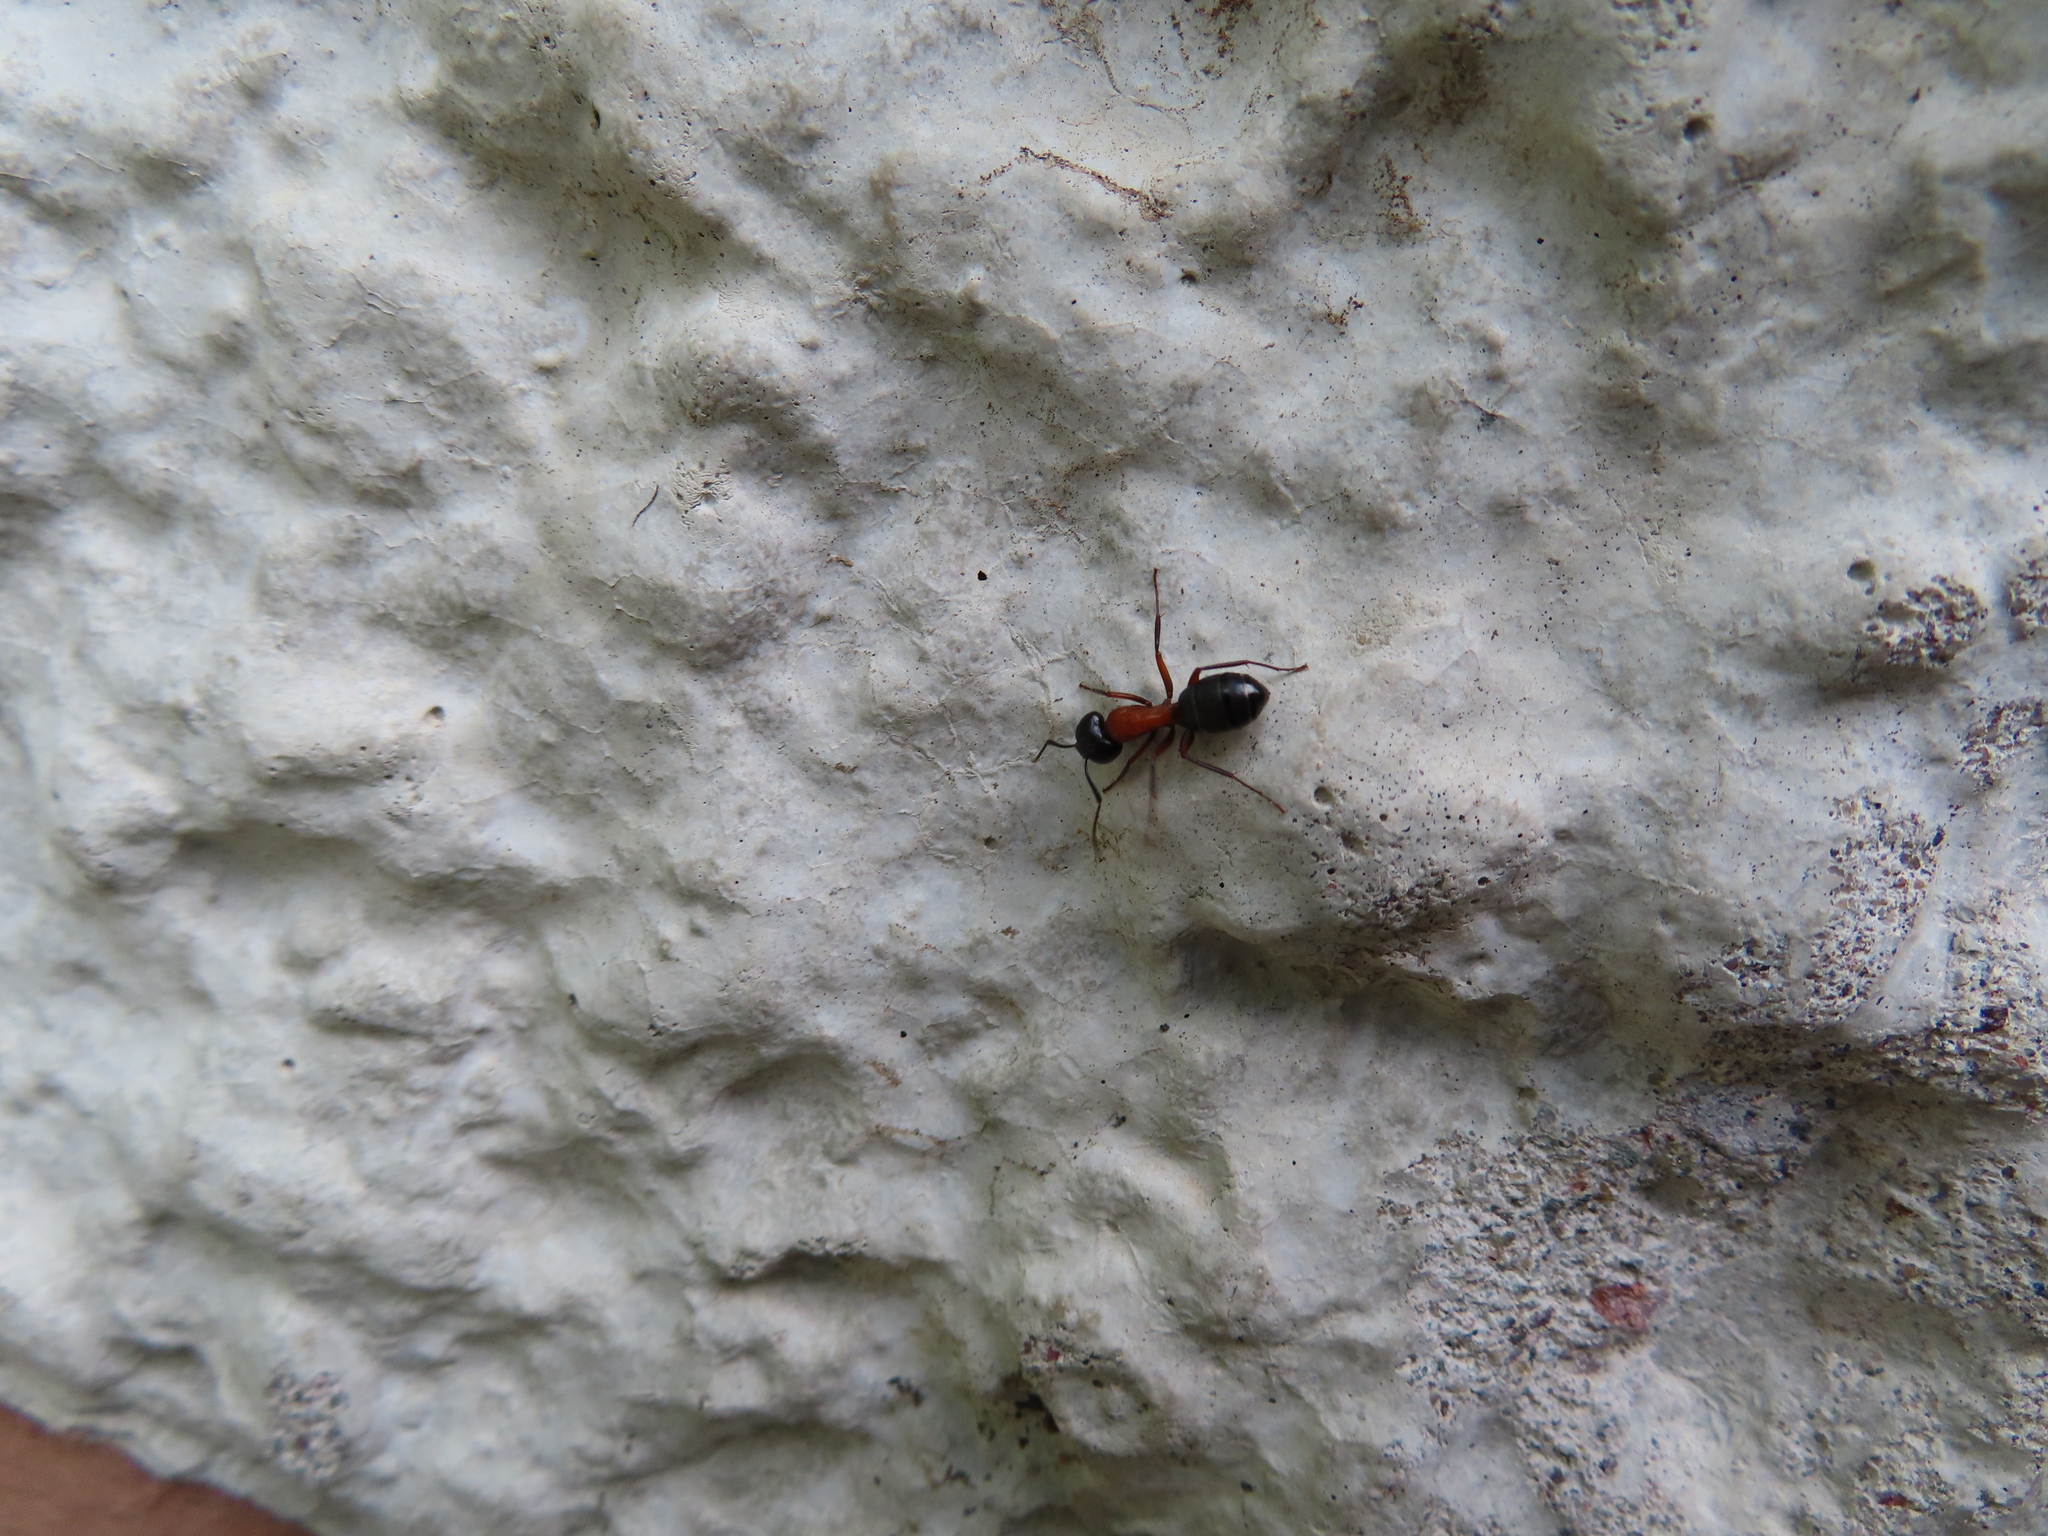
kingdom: Animalia
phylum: Arthropoda
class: Insecta
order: Hymenoptera
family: Formicidae
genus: Camponotus
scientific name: Camponotus novaeboracensis
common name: New york carpenter ant
